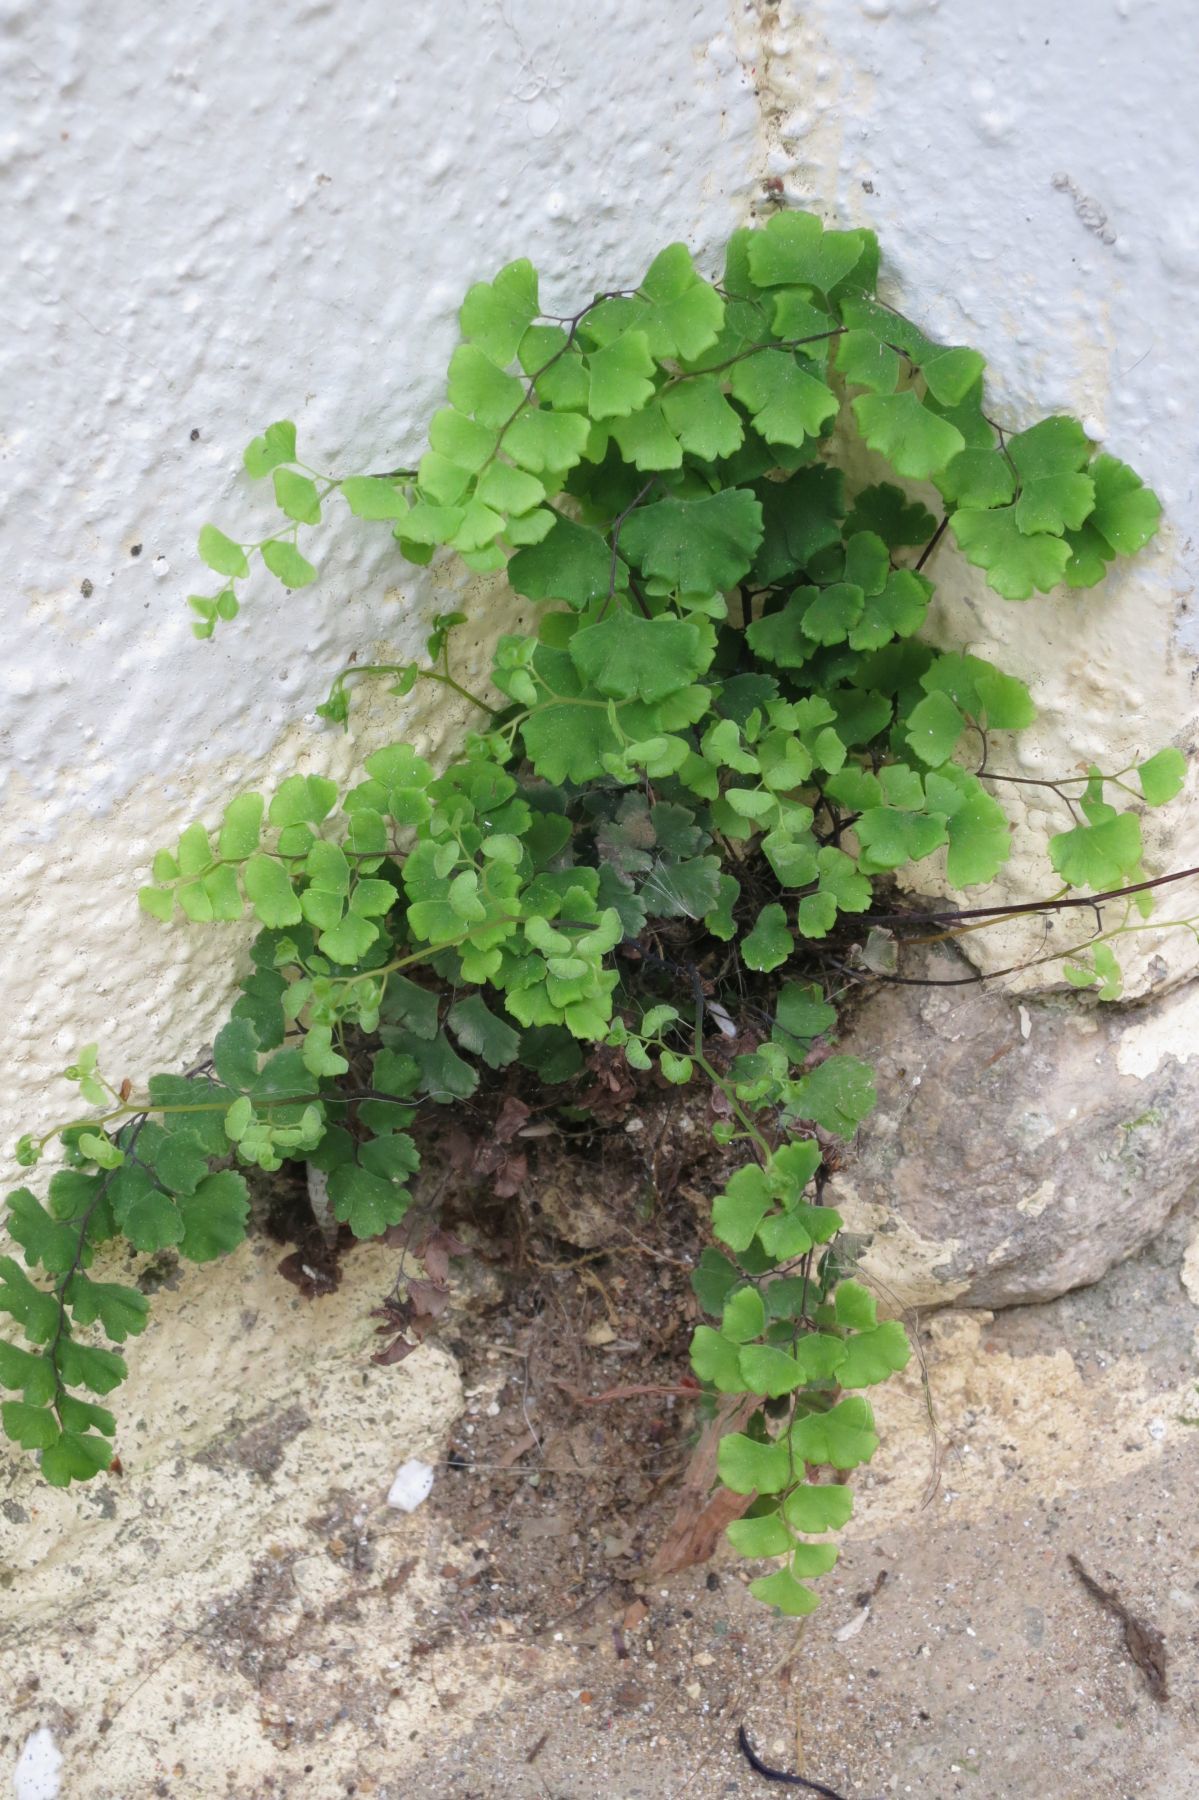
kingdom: Plantae
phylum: Tracheophyta
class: Polypodiopsida
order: Polypodiales
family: Pteridaceae
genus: Adiantum
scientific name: Adiantum capillus-veneris
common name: Maidenhair fern
